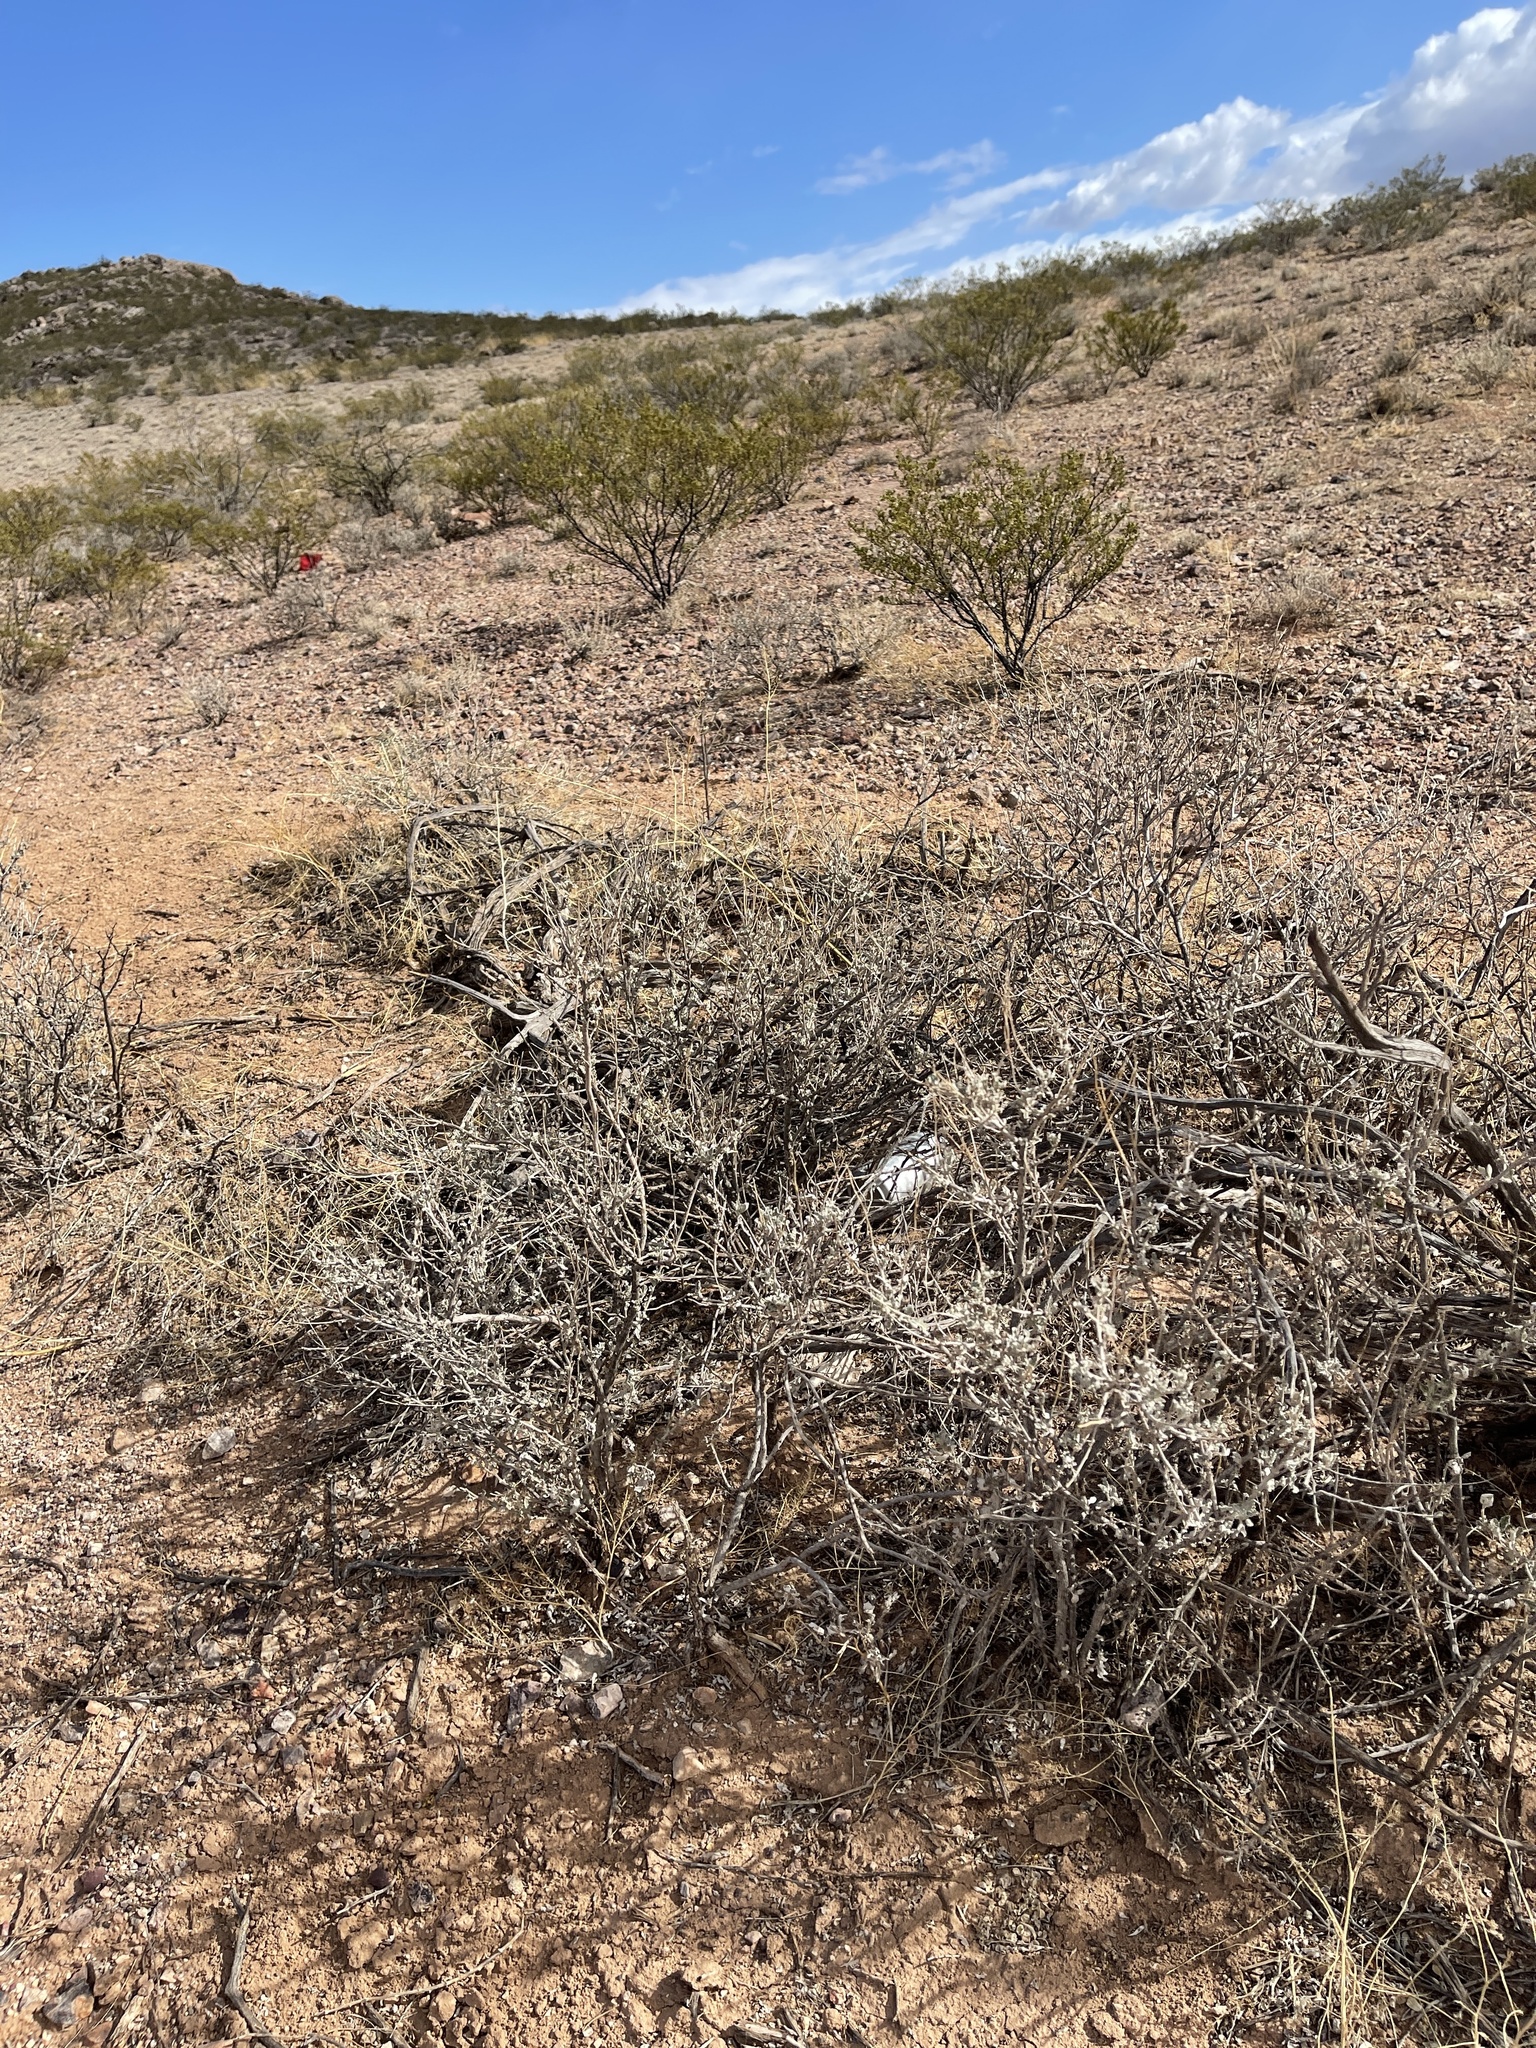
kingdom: Plantae
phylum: Tracheophyta
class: Magnoliopsida
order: Asterales
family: Asteraceae
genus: Parthenium
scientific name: Parthenium incanum
